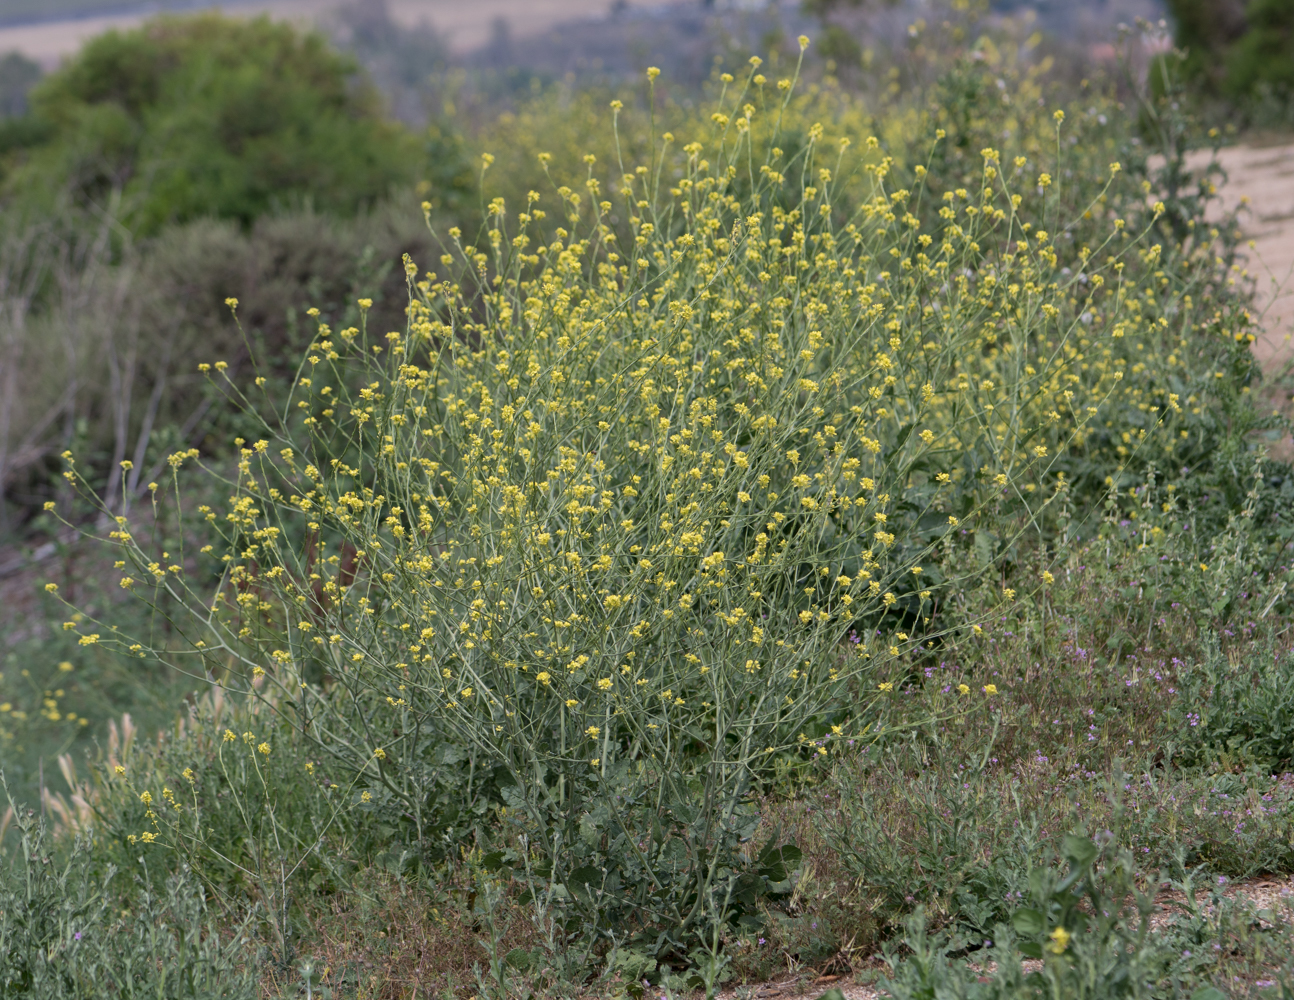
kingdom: Plantae
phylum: Tracheophyta
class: Magnoliopsida
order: Brassicales
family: Brassicaceae
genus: Hirschfeldia
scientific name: Hirschfeldia incana
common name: Hoary mustard
